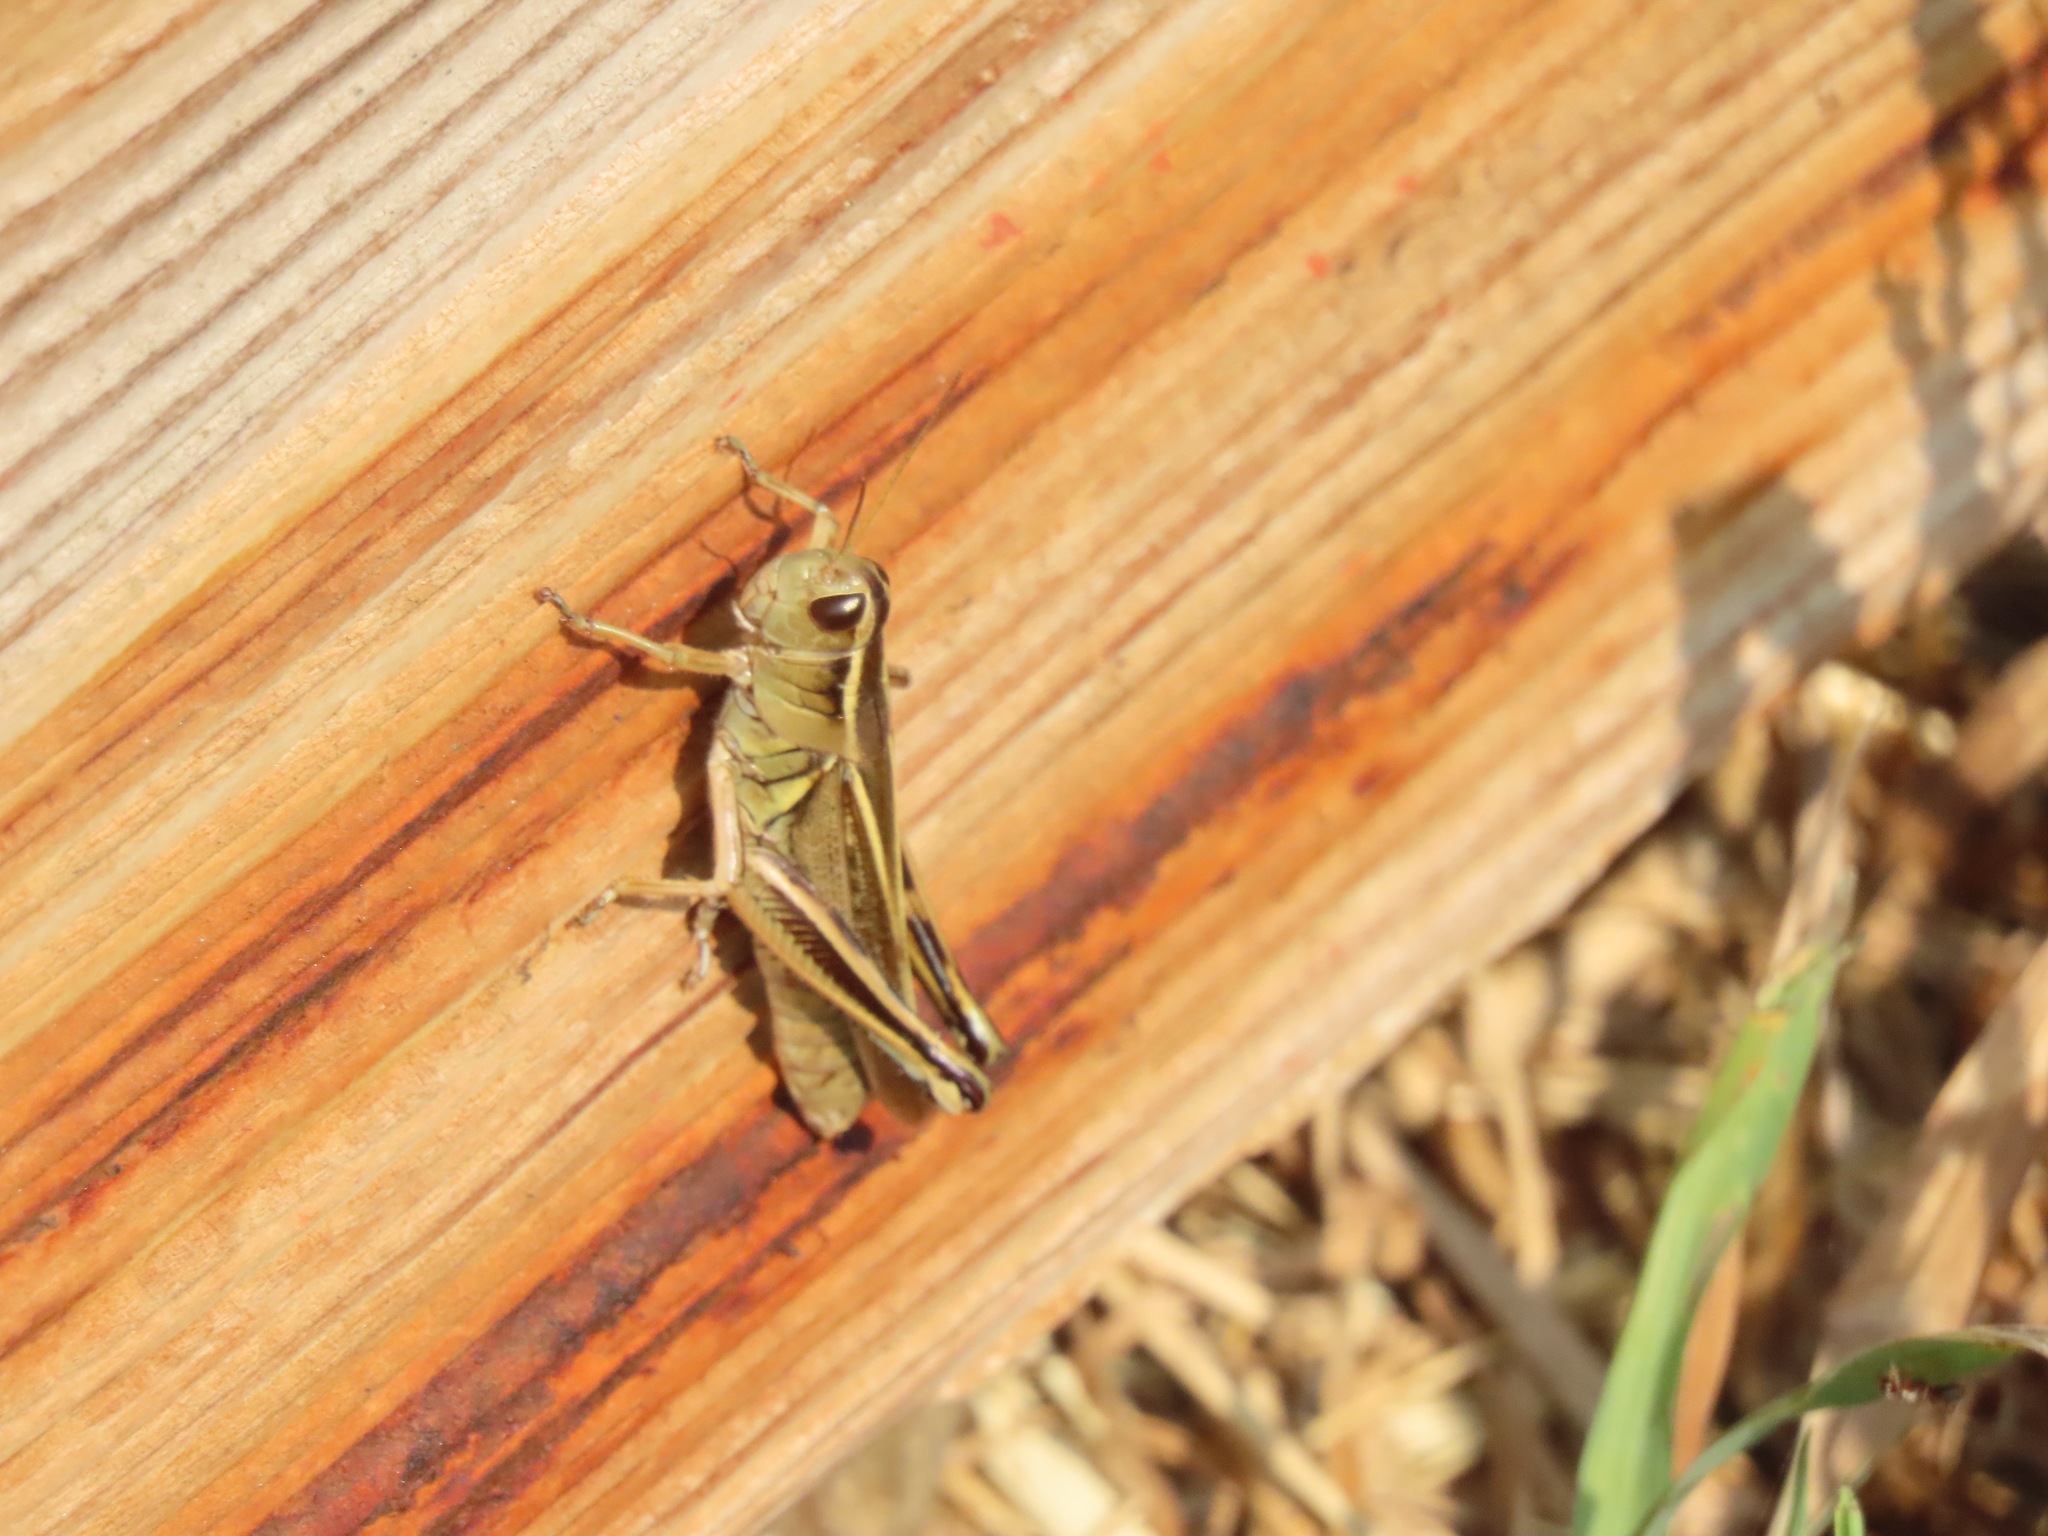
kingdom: Animalia
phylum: Arthropoda
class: Insecta
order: Orthoptera
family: Acrididae
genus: Melanoplus
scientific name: Melanoplus bivittatus
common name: Two-striped grasshopper
